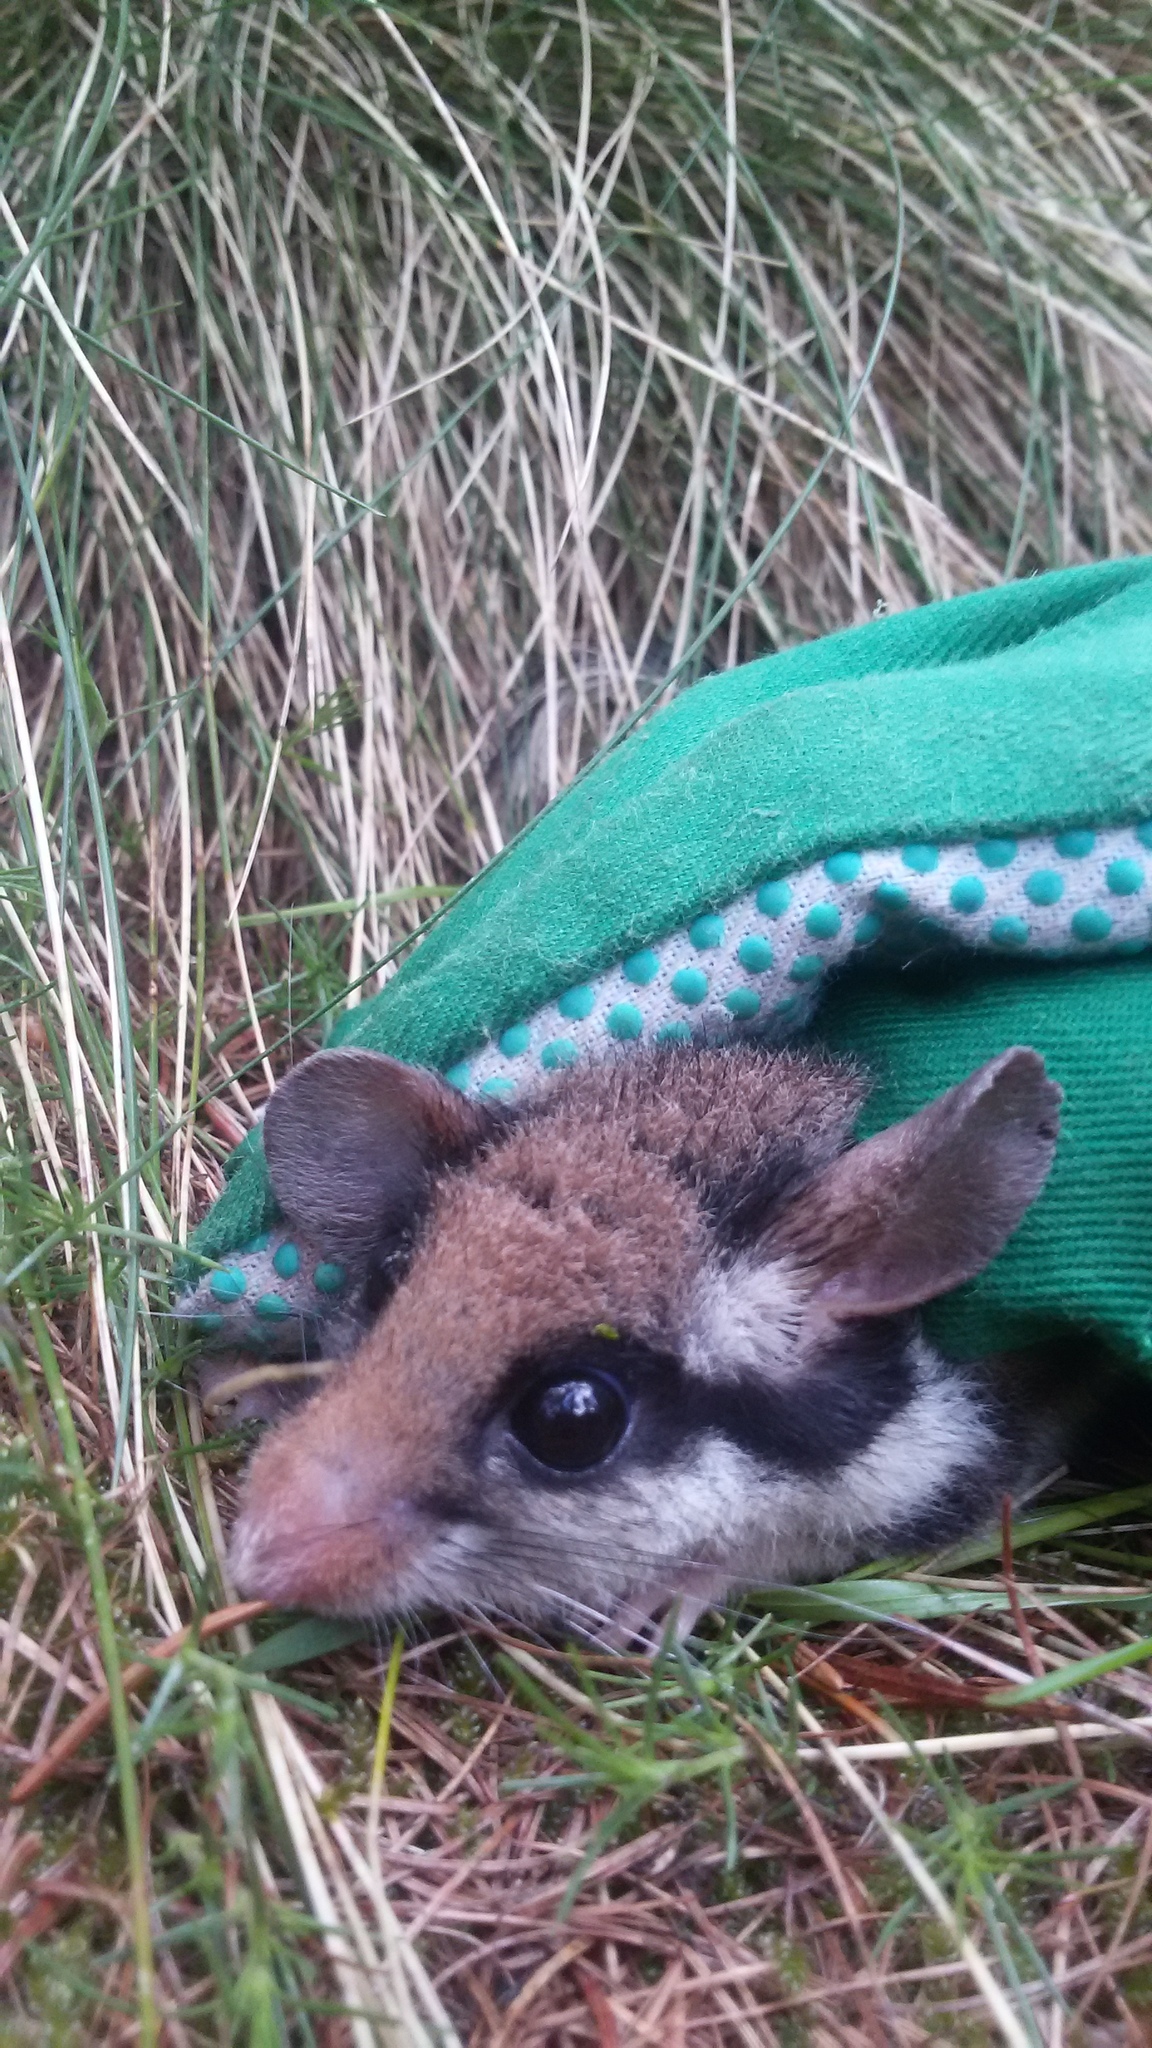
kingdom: Animalia
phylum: Chordata
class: Mammalia
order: Rodentia
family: Gliridae
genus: Eliomys
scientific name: Eliomys quercinus
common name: Garden dormouse
